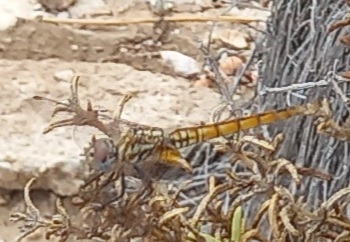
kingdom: Animalia
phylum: Arthropoda
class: Insecta
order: Odonata
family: Libellulidae
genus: Trithemis
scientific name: Trithemis annulata
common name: Violet dropwing
